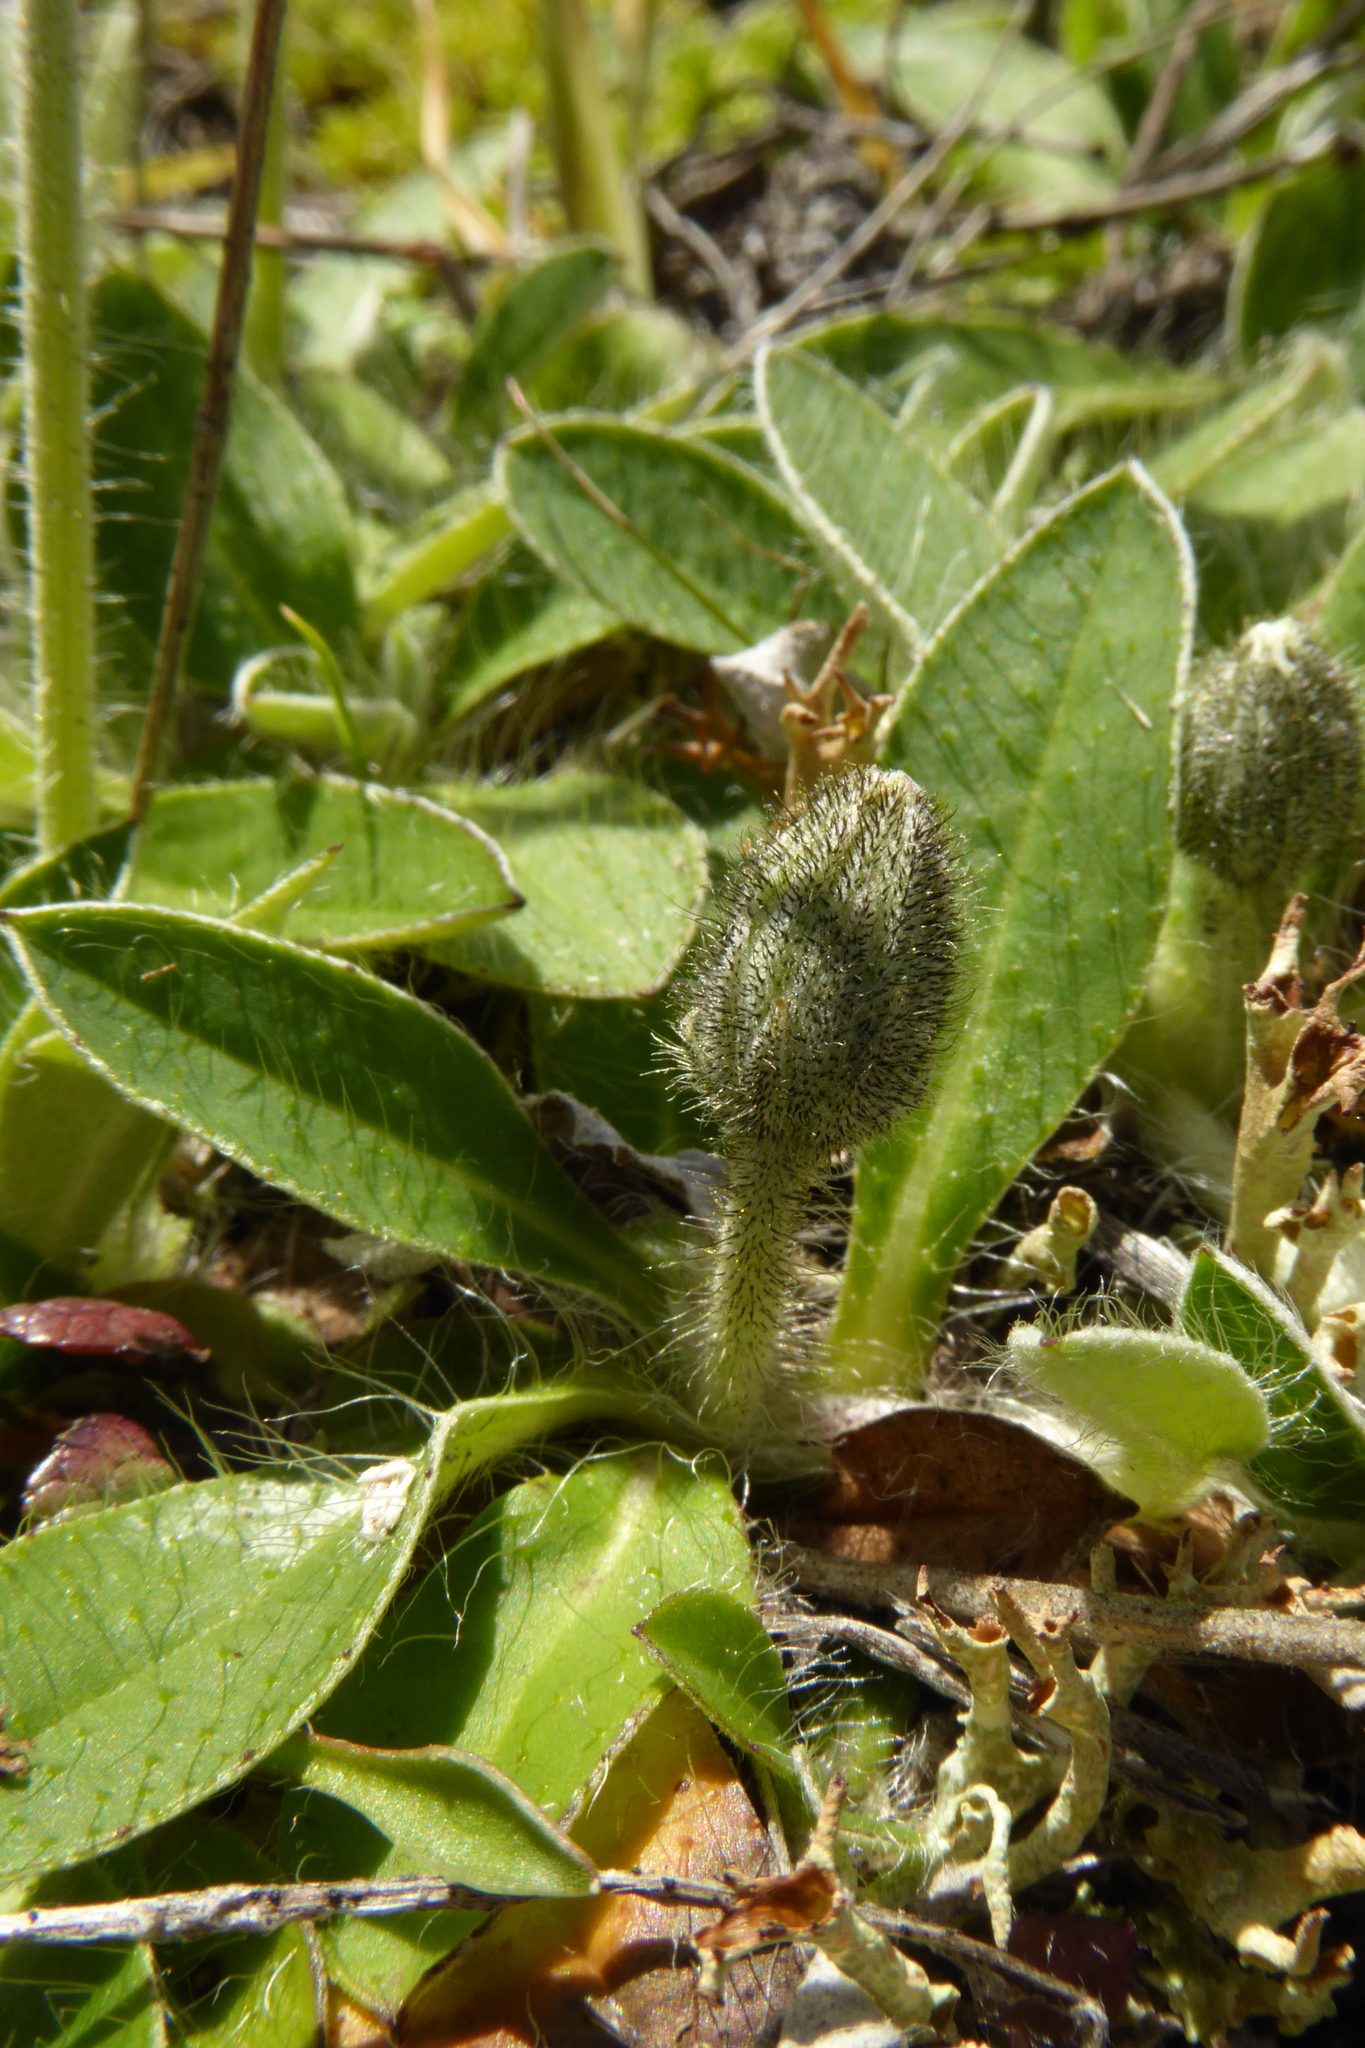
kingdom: Plantae
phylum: Tracheophyta
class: Magnoliopsida
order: Asterales
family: Asteraceae
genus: Pilosella
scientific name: Pilosella officinarum
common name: Mouse-ear hawkweed
